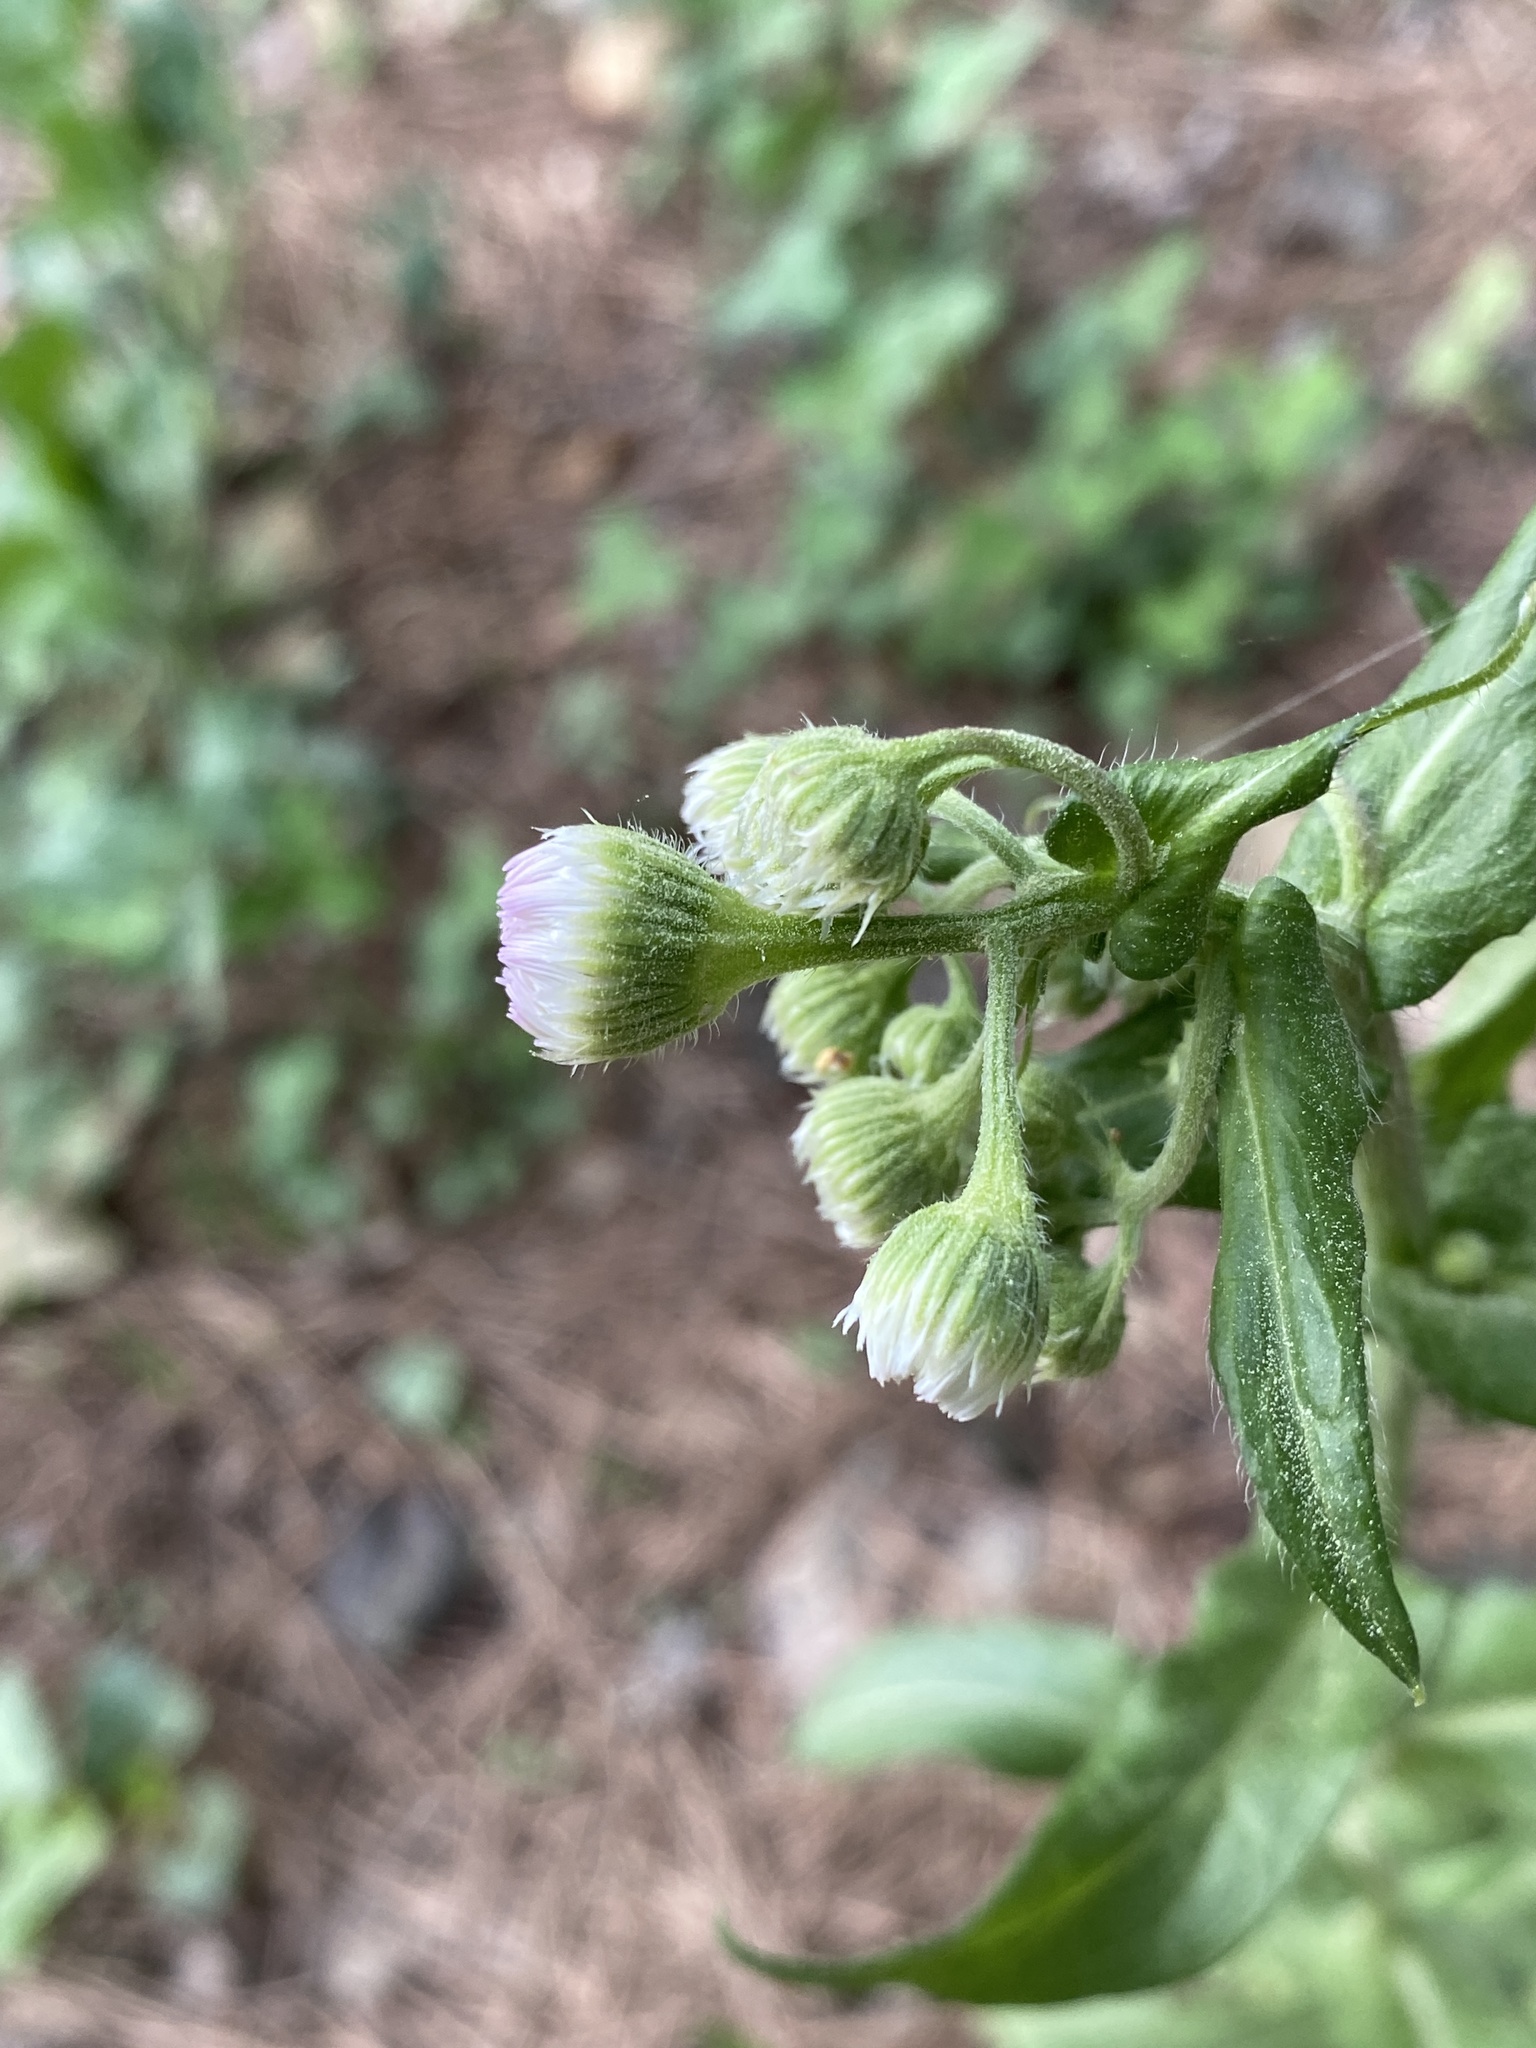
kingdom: Plantae
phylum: Tracheophyta
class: Magnoliopsida
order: Asterales
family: Asteraceae
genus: Erigeron
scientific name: Erigeron philadelphicus
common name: Robin's-plantain
